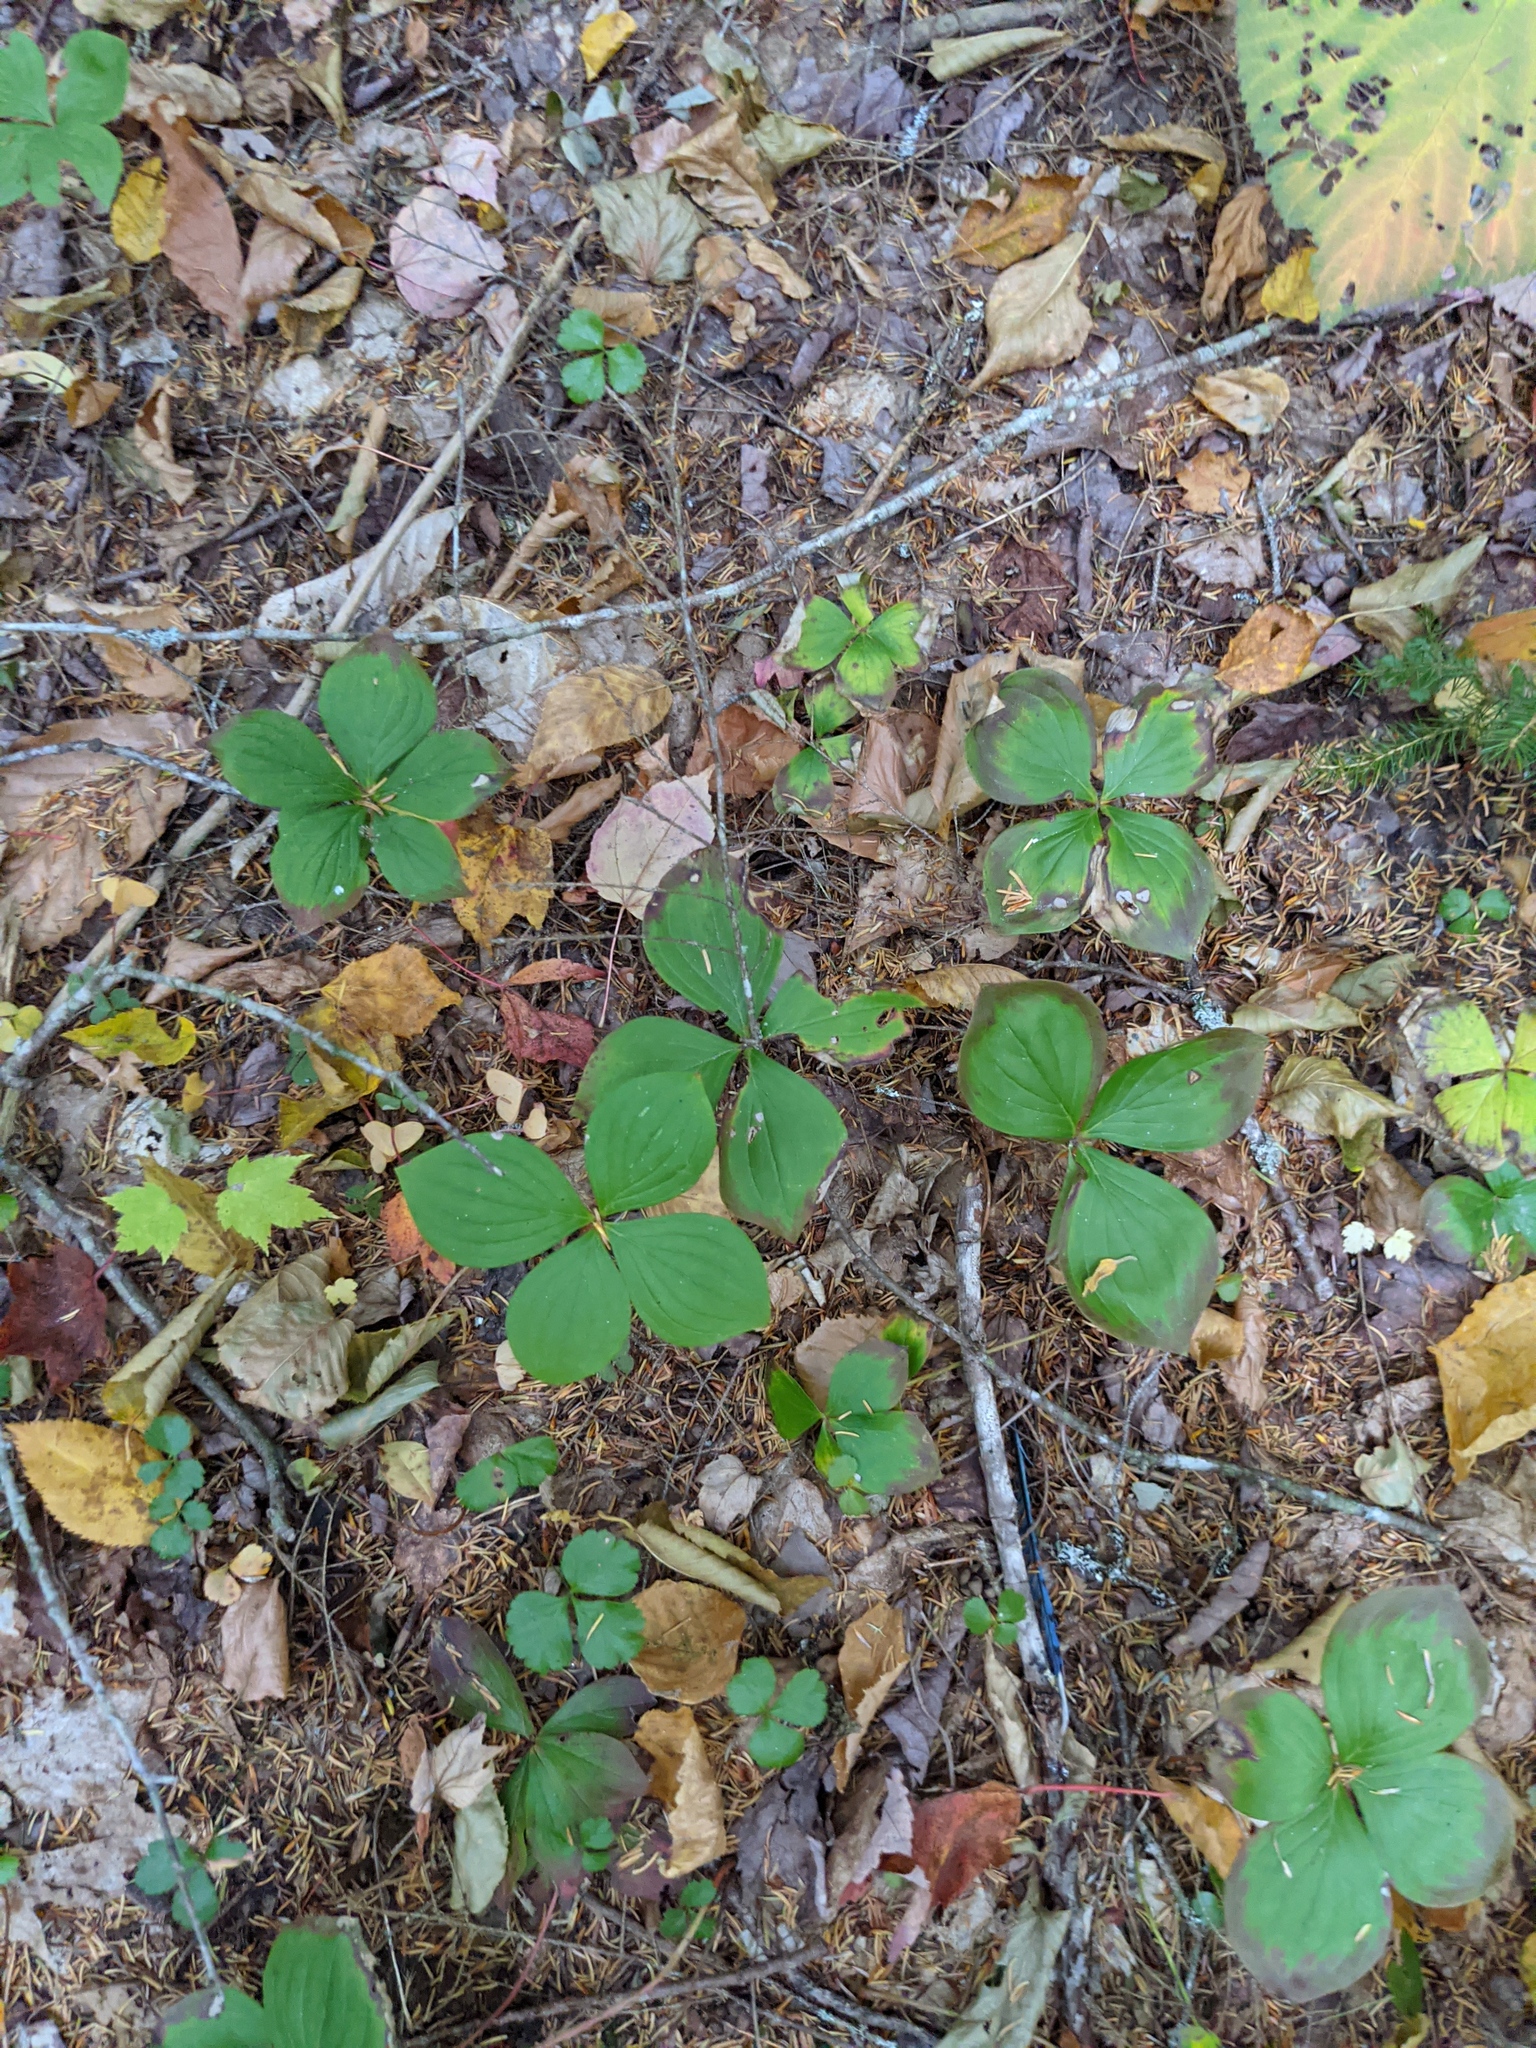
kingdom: Plantae
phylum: Tracheophyta
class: Magnoliopsida
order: Cornales
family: Cornaceae
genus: Cornus
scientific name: Cornus canadensis
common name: Creeping dogwood
